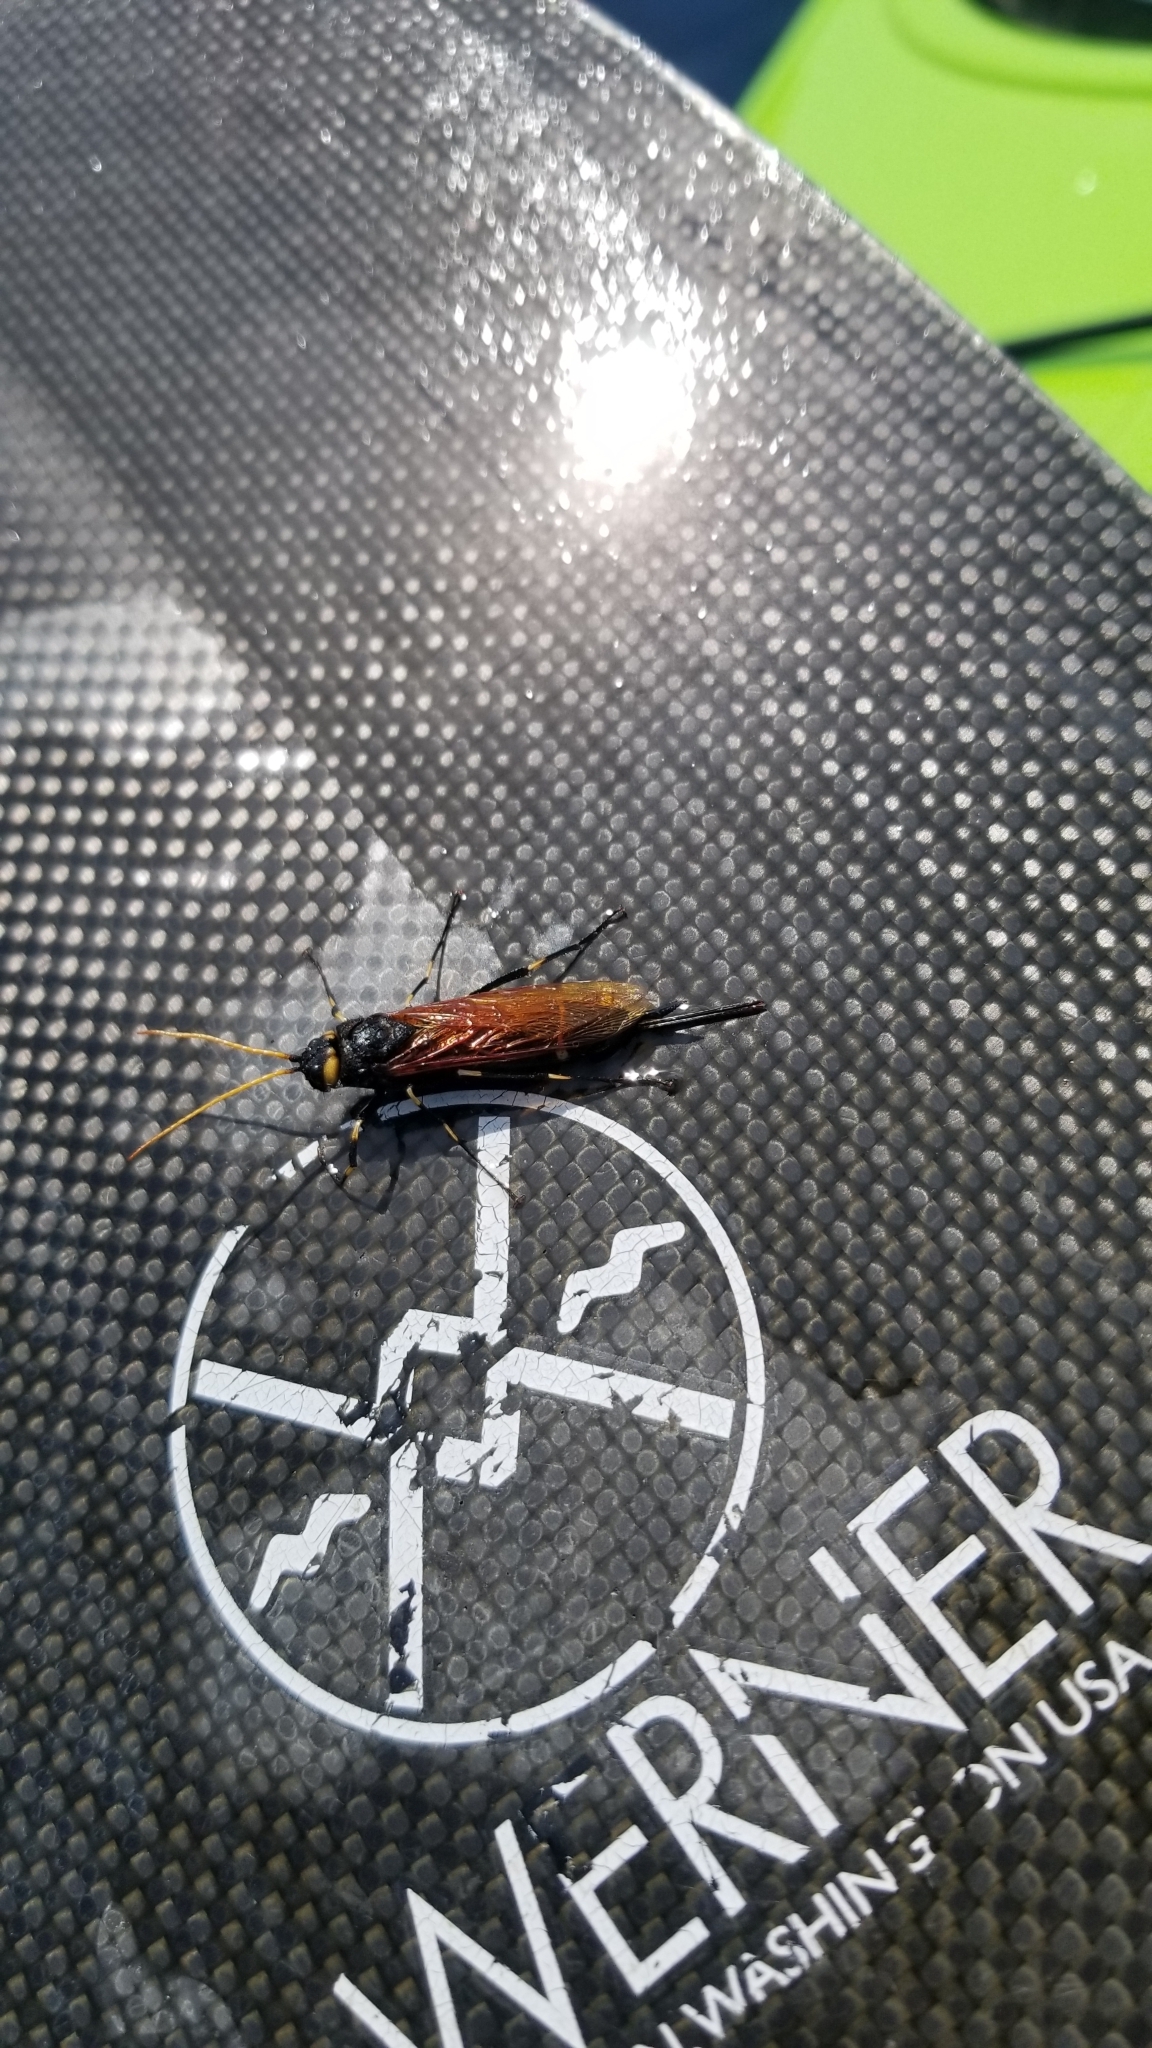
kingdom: Animalia
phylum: Arthropoda
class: Insecta
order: Hymenoptera
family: Siricidae
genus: Urocerus
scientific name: Urocerus californicus
